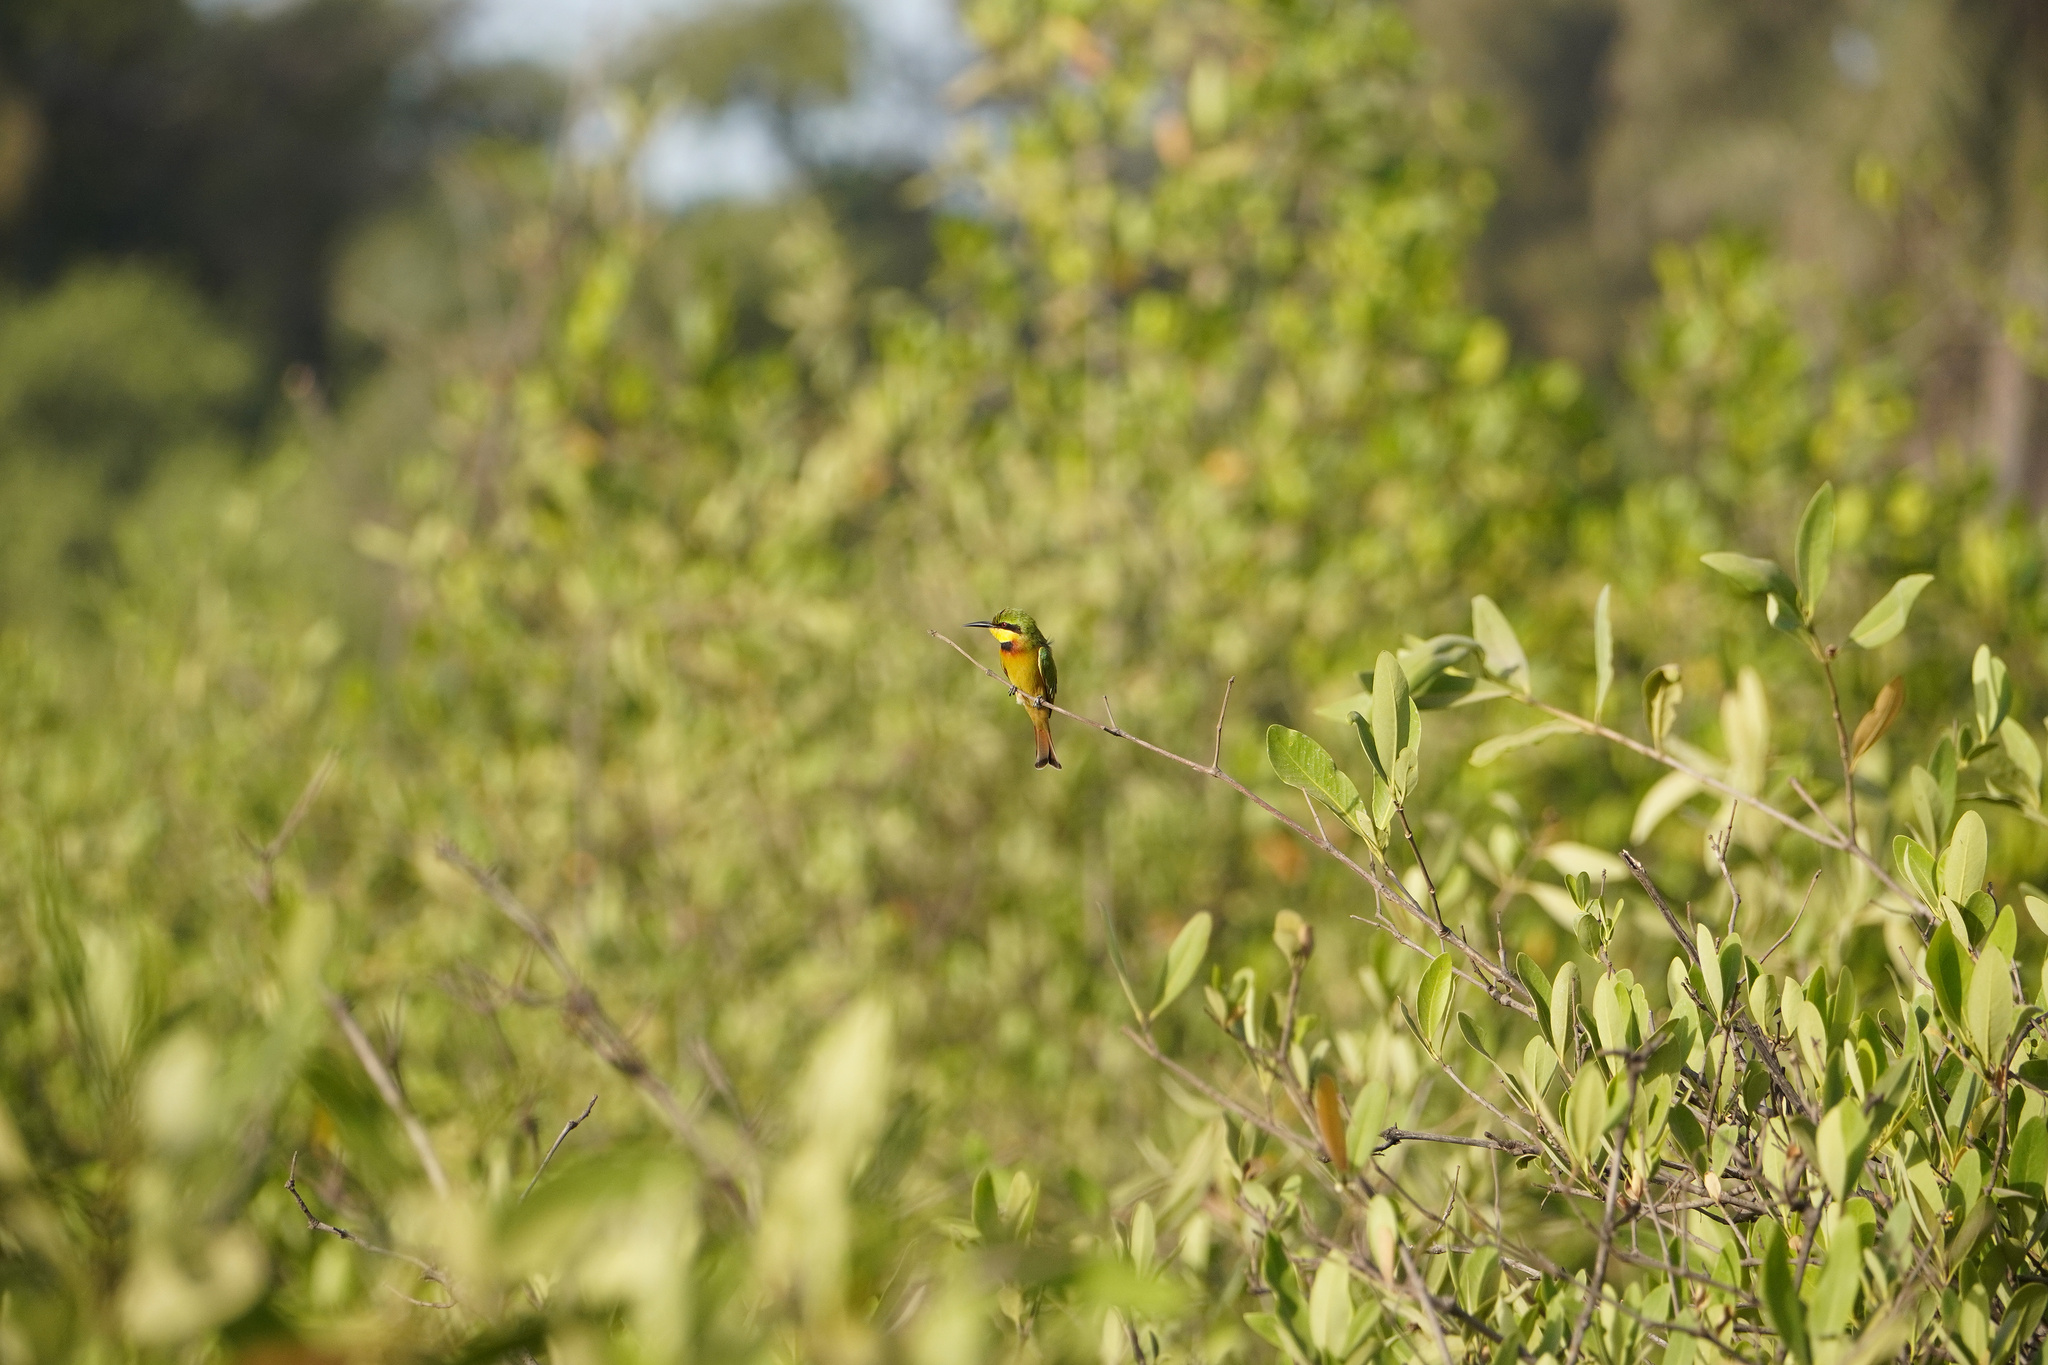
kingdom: Animalia
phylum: Chordata
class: Aves
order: Coraciiformes
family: Meropidae
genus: Merops
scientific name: Merops pusillus
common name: Little bee-eater
